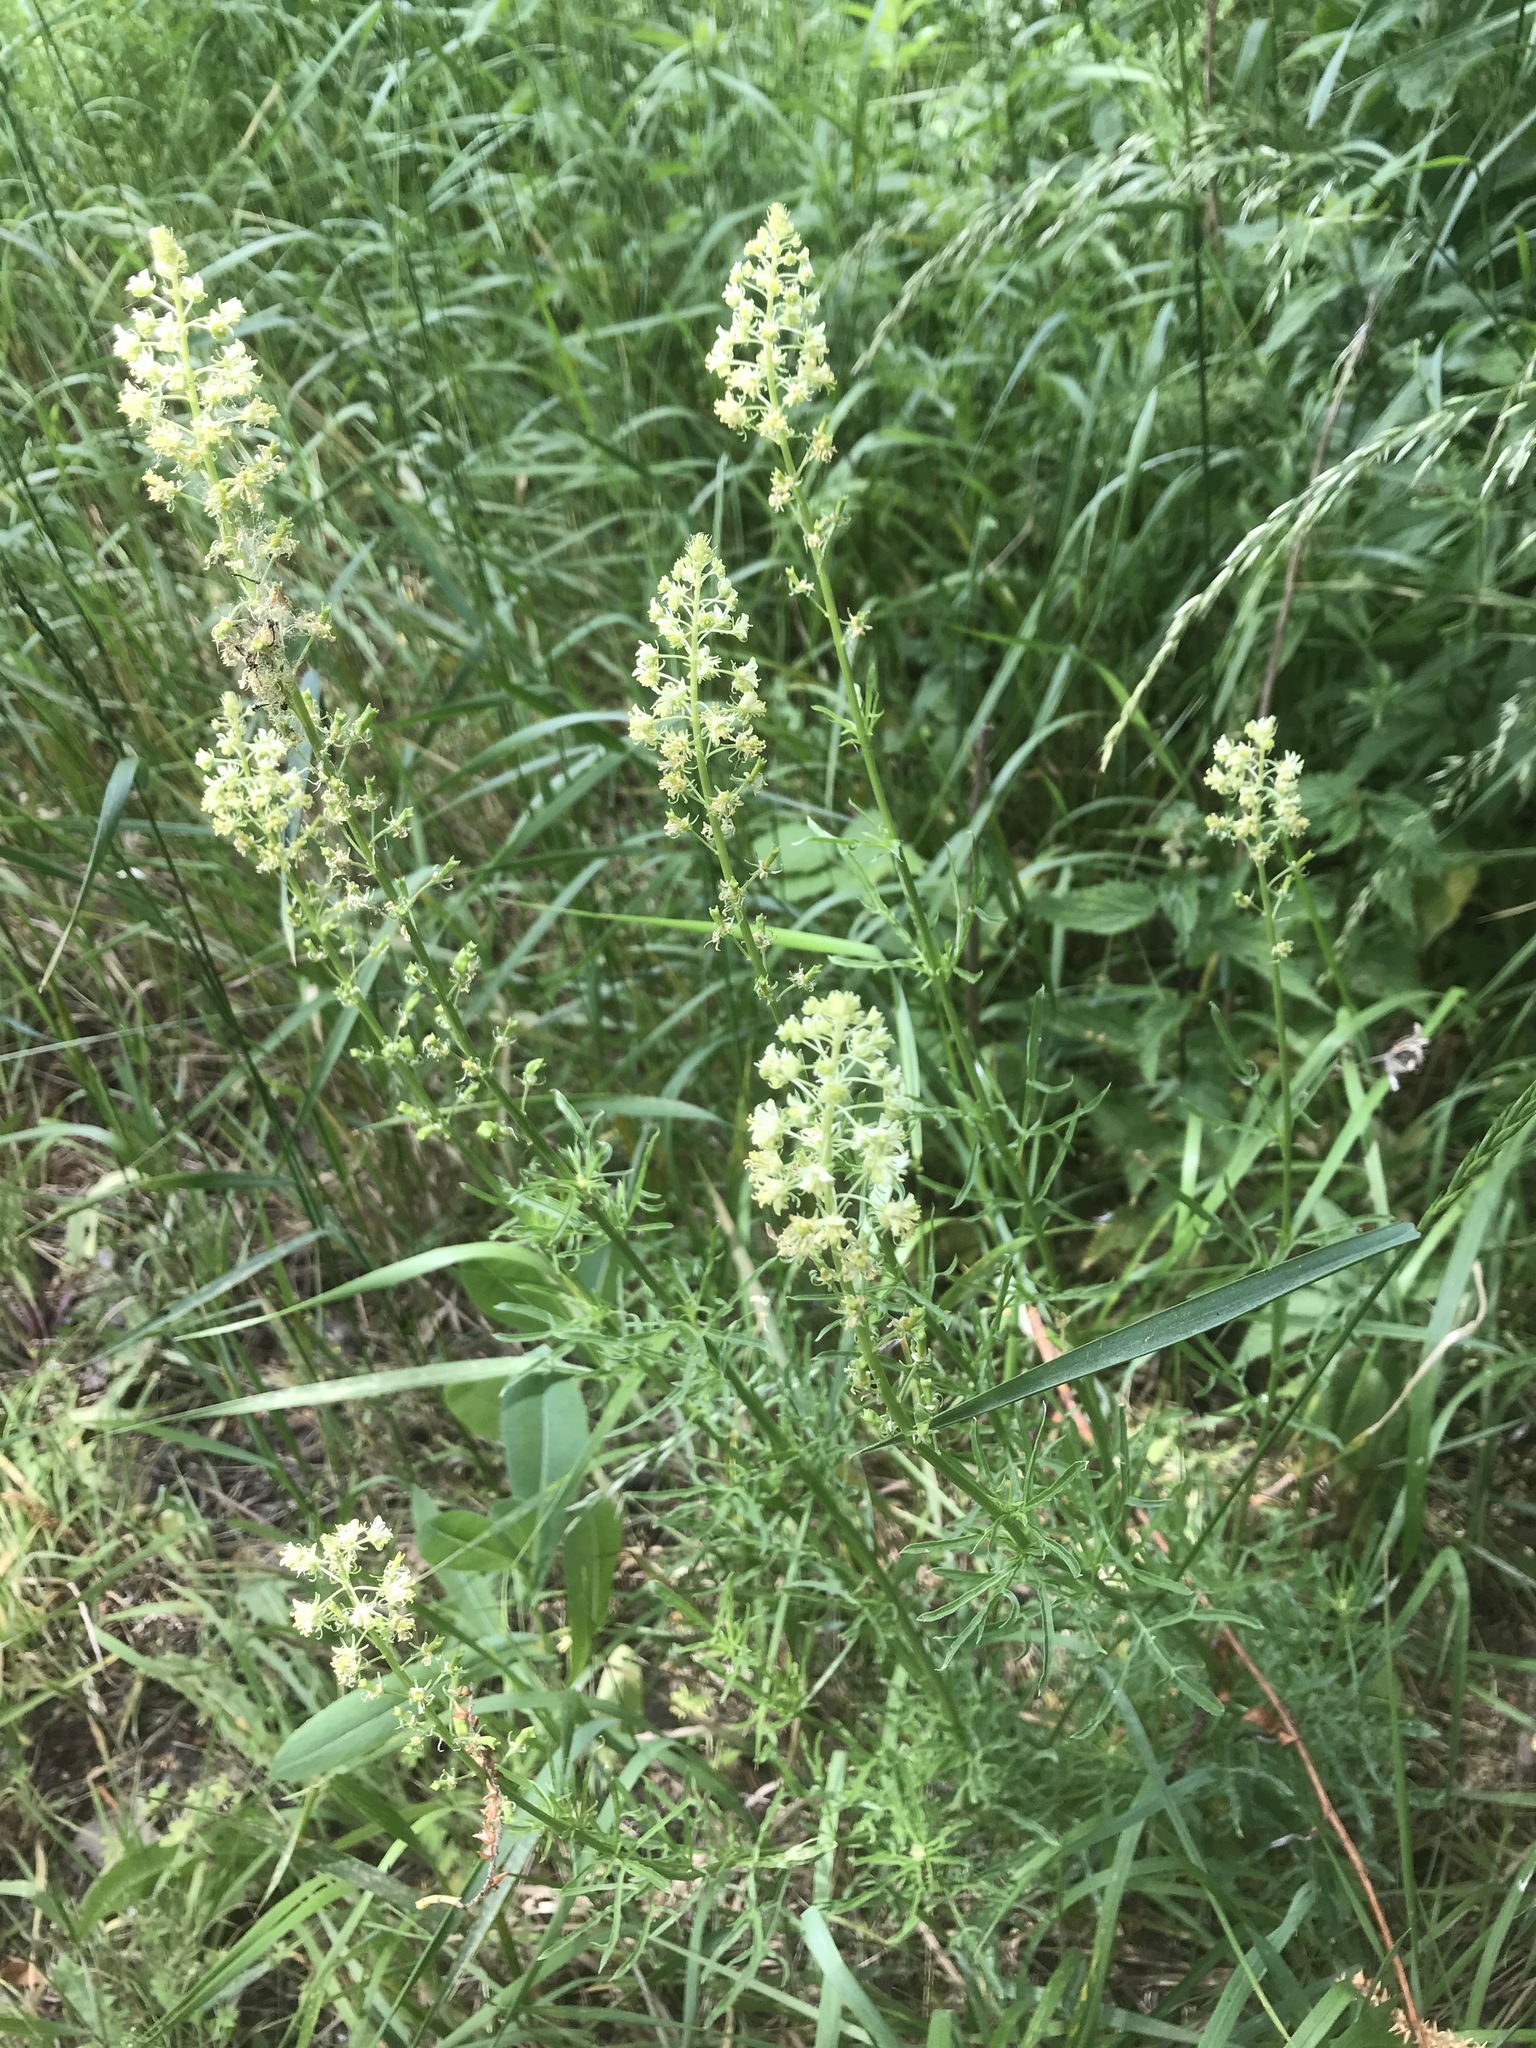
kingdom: Plantae
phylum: Tracheophyta
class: Magnoliopsida
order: Brassicales
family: Resedaceae
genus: Reseda
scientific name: Reseda lutea
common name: Wild mignonette
